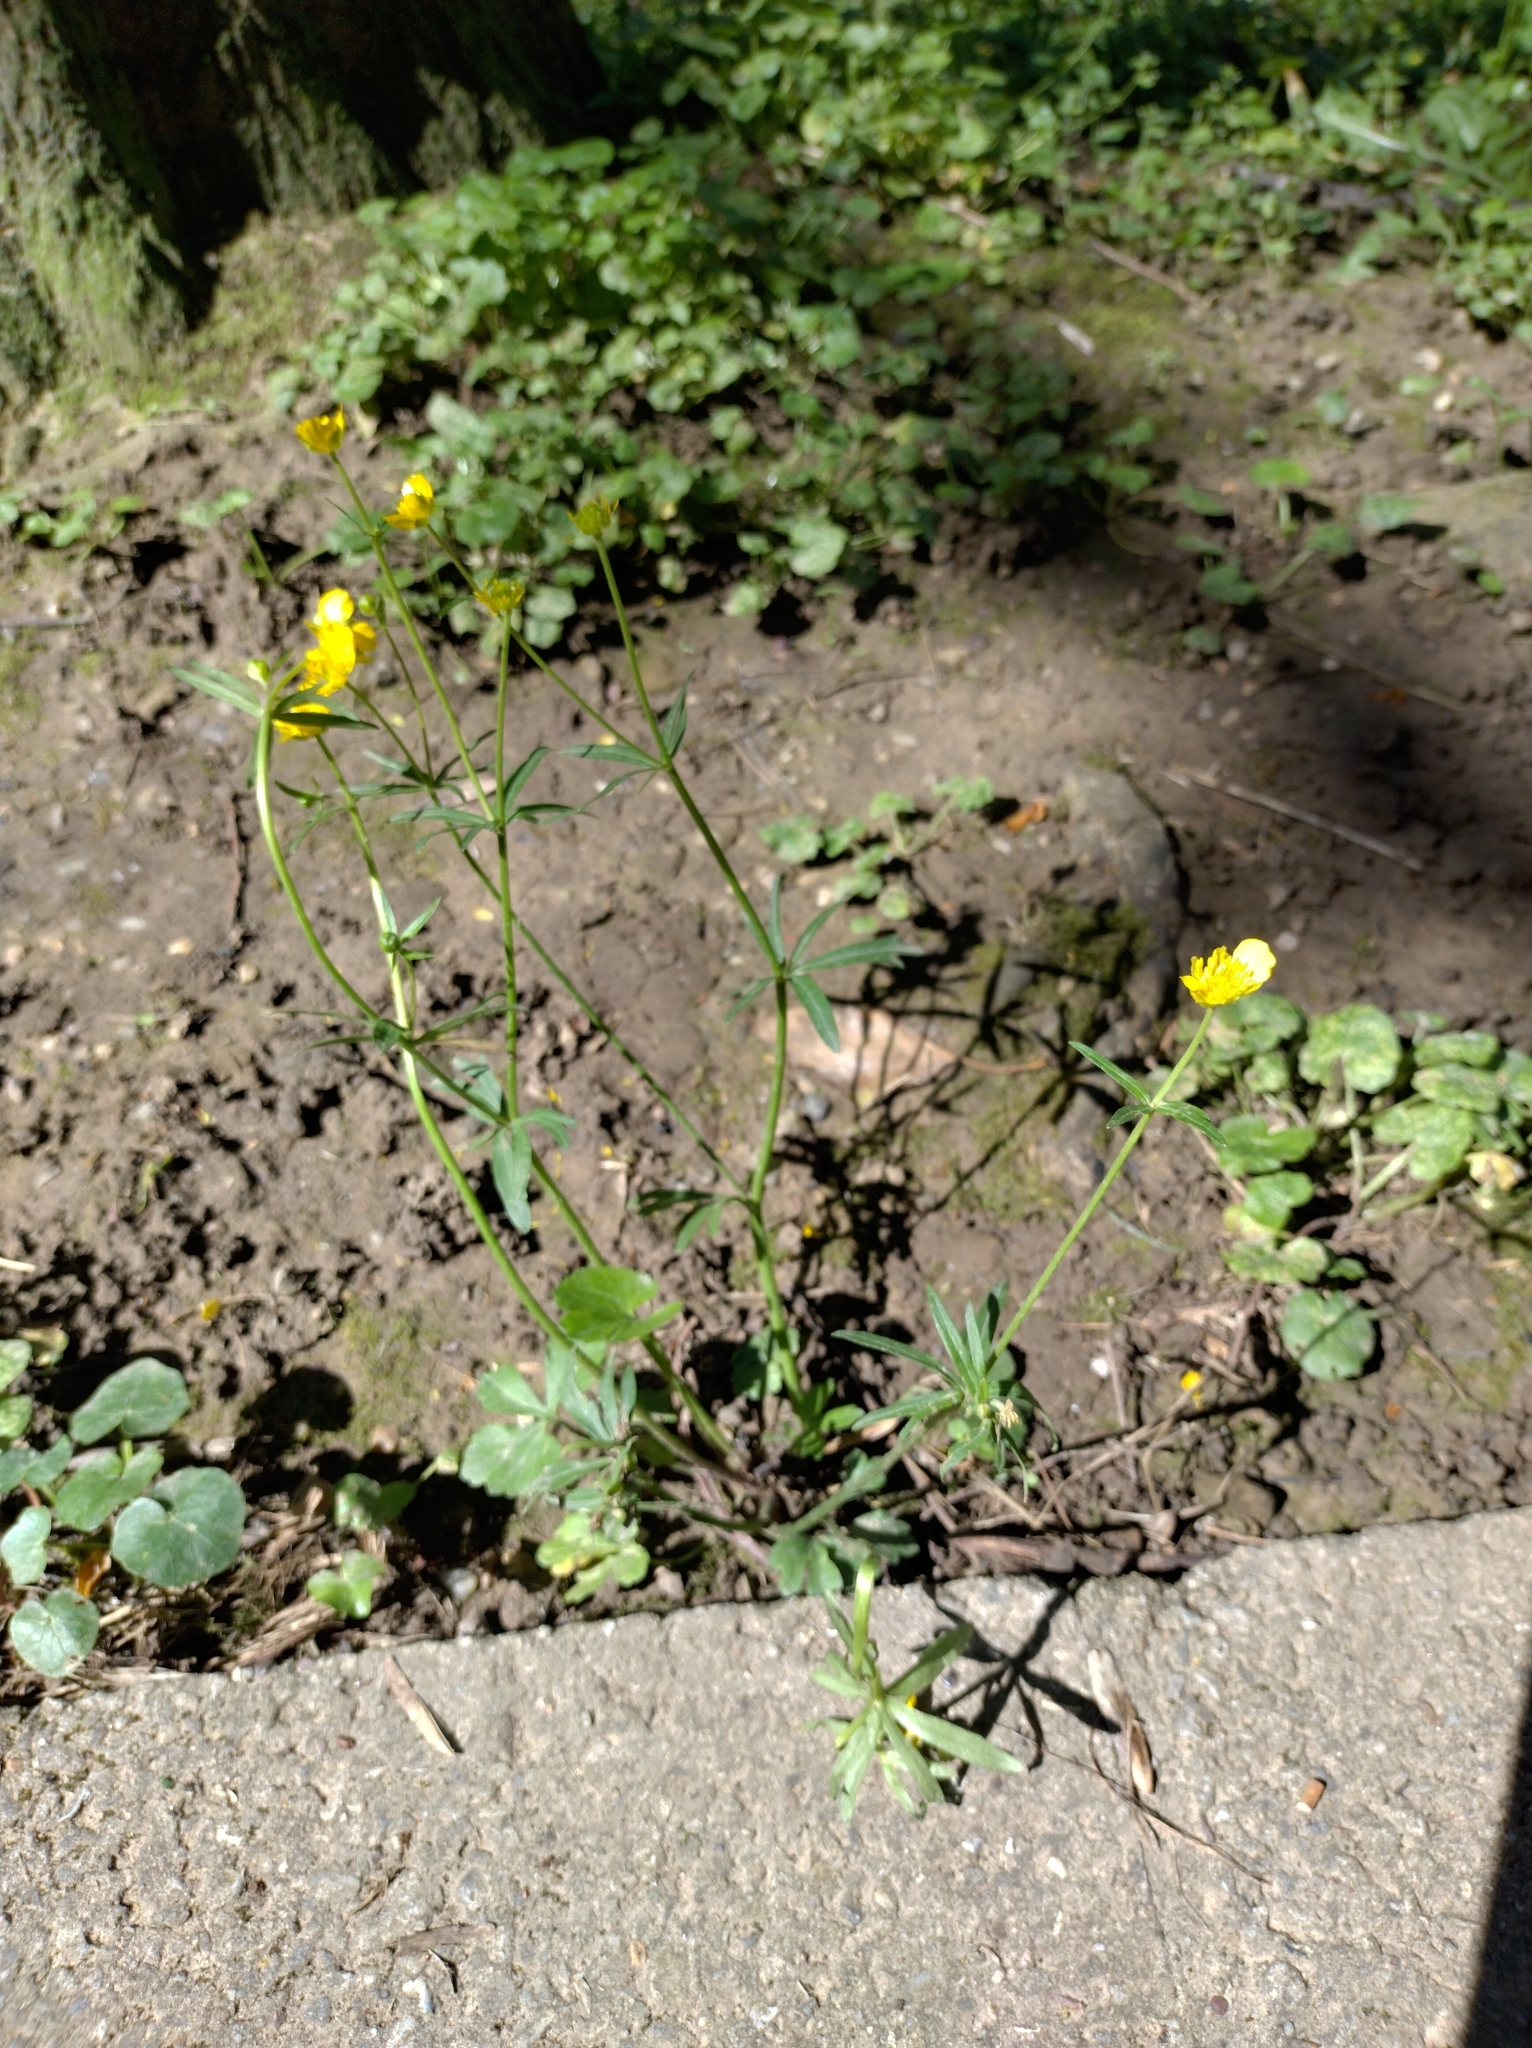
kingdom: Plantae
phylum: Tracheophyta
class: Magnoliopsida
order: Ranunculales
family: Ranunculaceae
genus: Ranunculus
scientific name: Ranunculus auricomus
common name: Goldilocks buttercup
